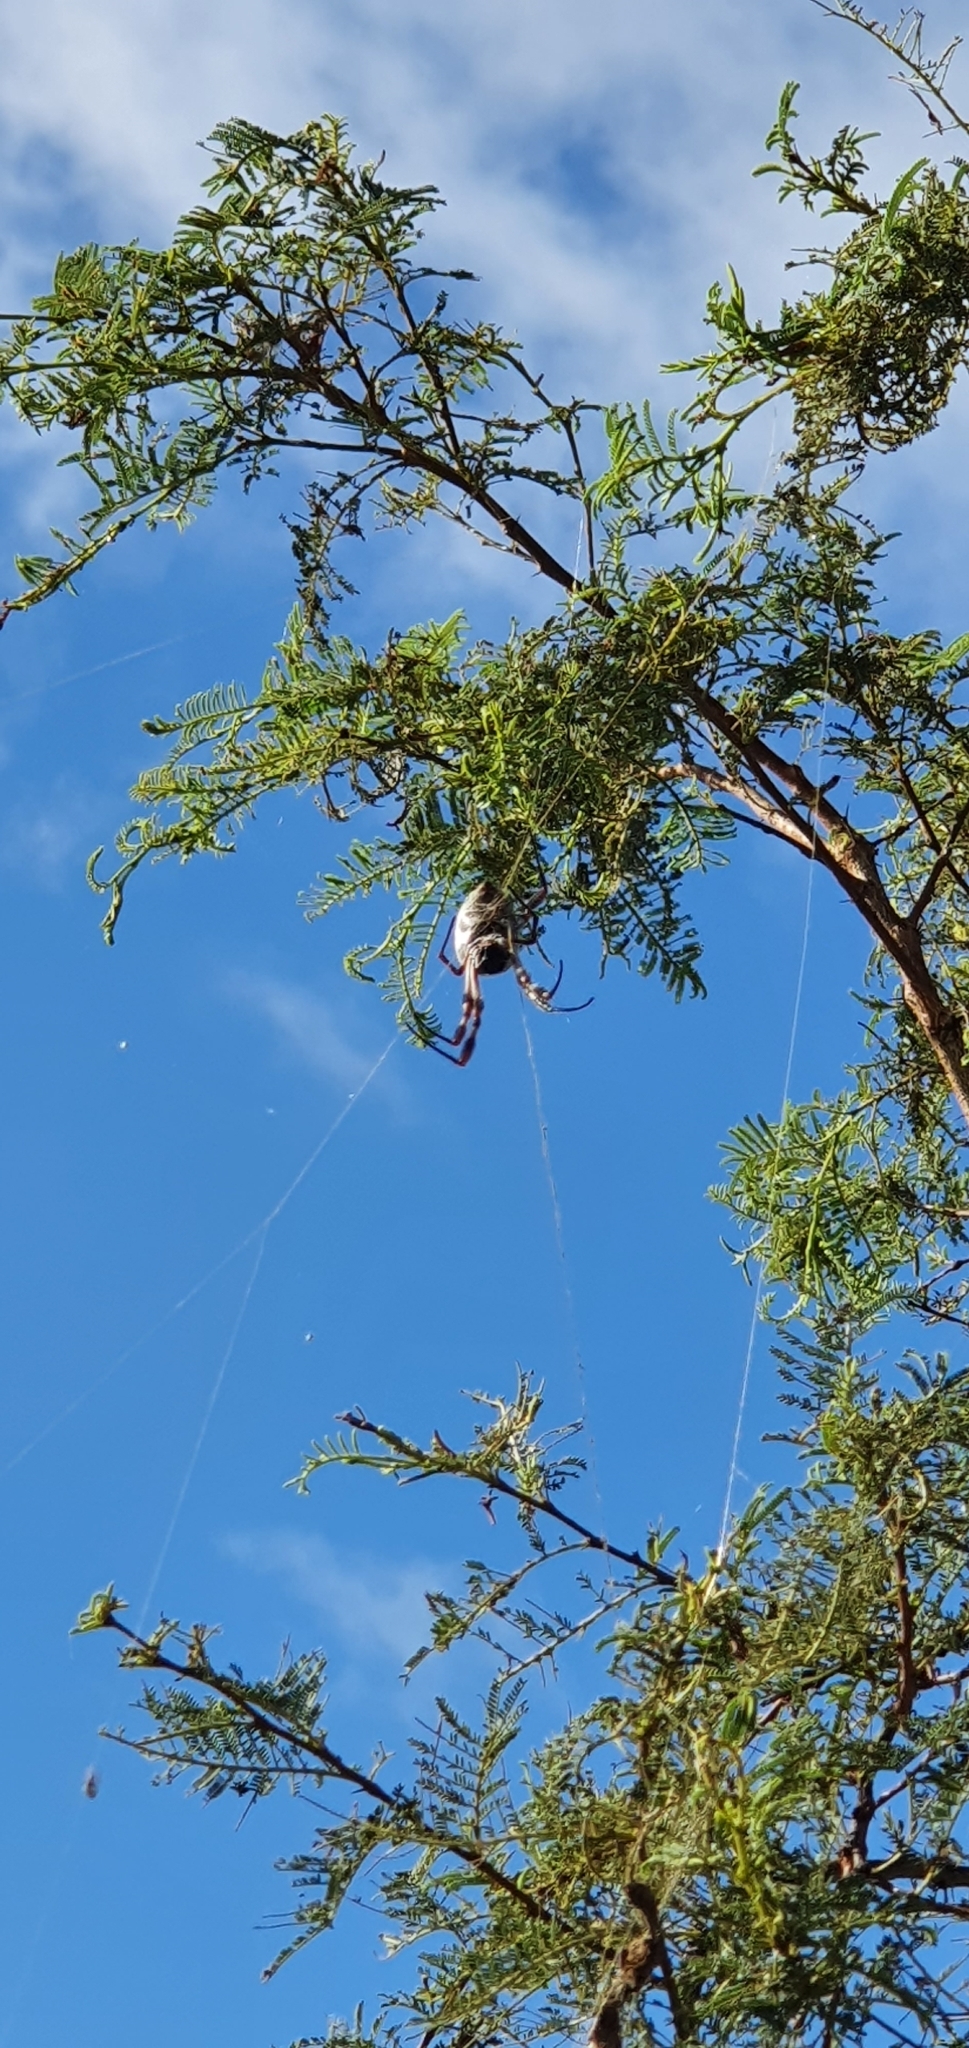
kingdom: Animalia
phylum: Arthropoda
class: Arachnida
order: Araneae
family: Araneidae
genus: Trichonephila
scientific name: Trichonephila edulis
